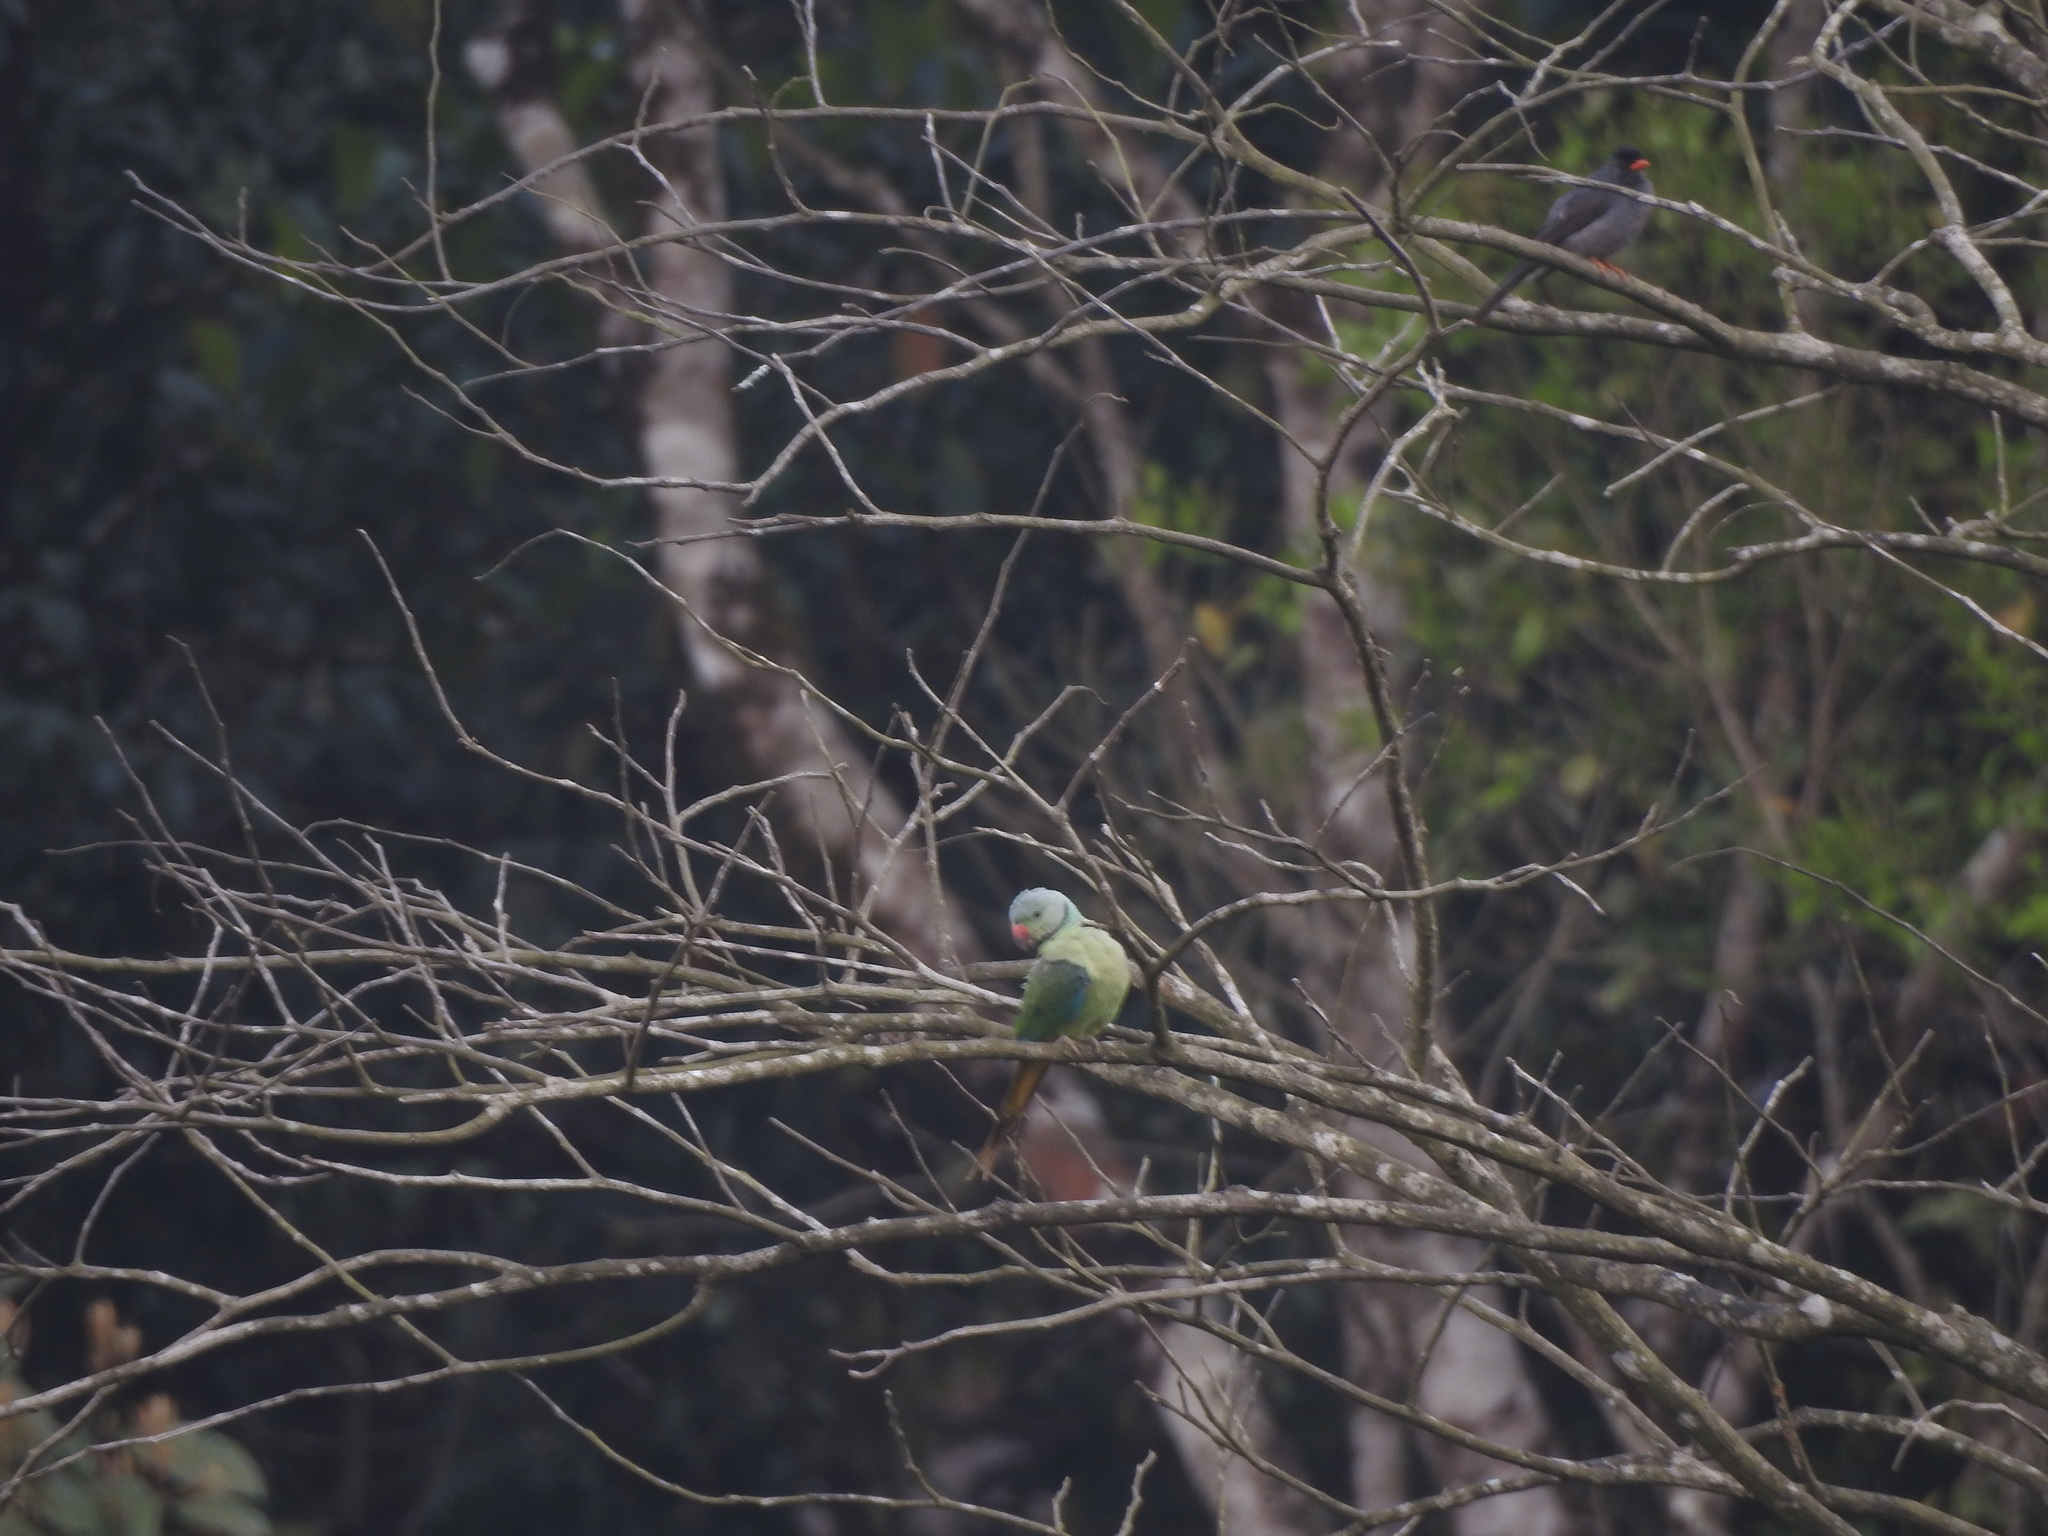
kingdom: Animalia
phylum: Chordata
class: Aves
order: Psittaciformes
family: Psittacidae
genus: Psittacula
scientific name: Psittacula columboides
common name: Blue-winged parakeet
